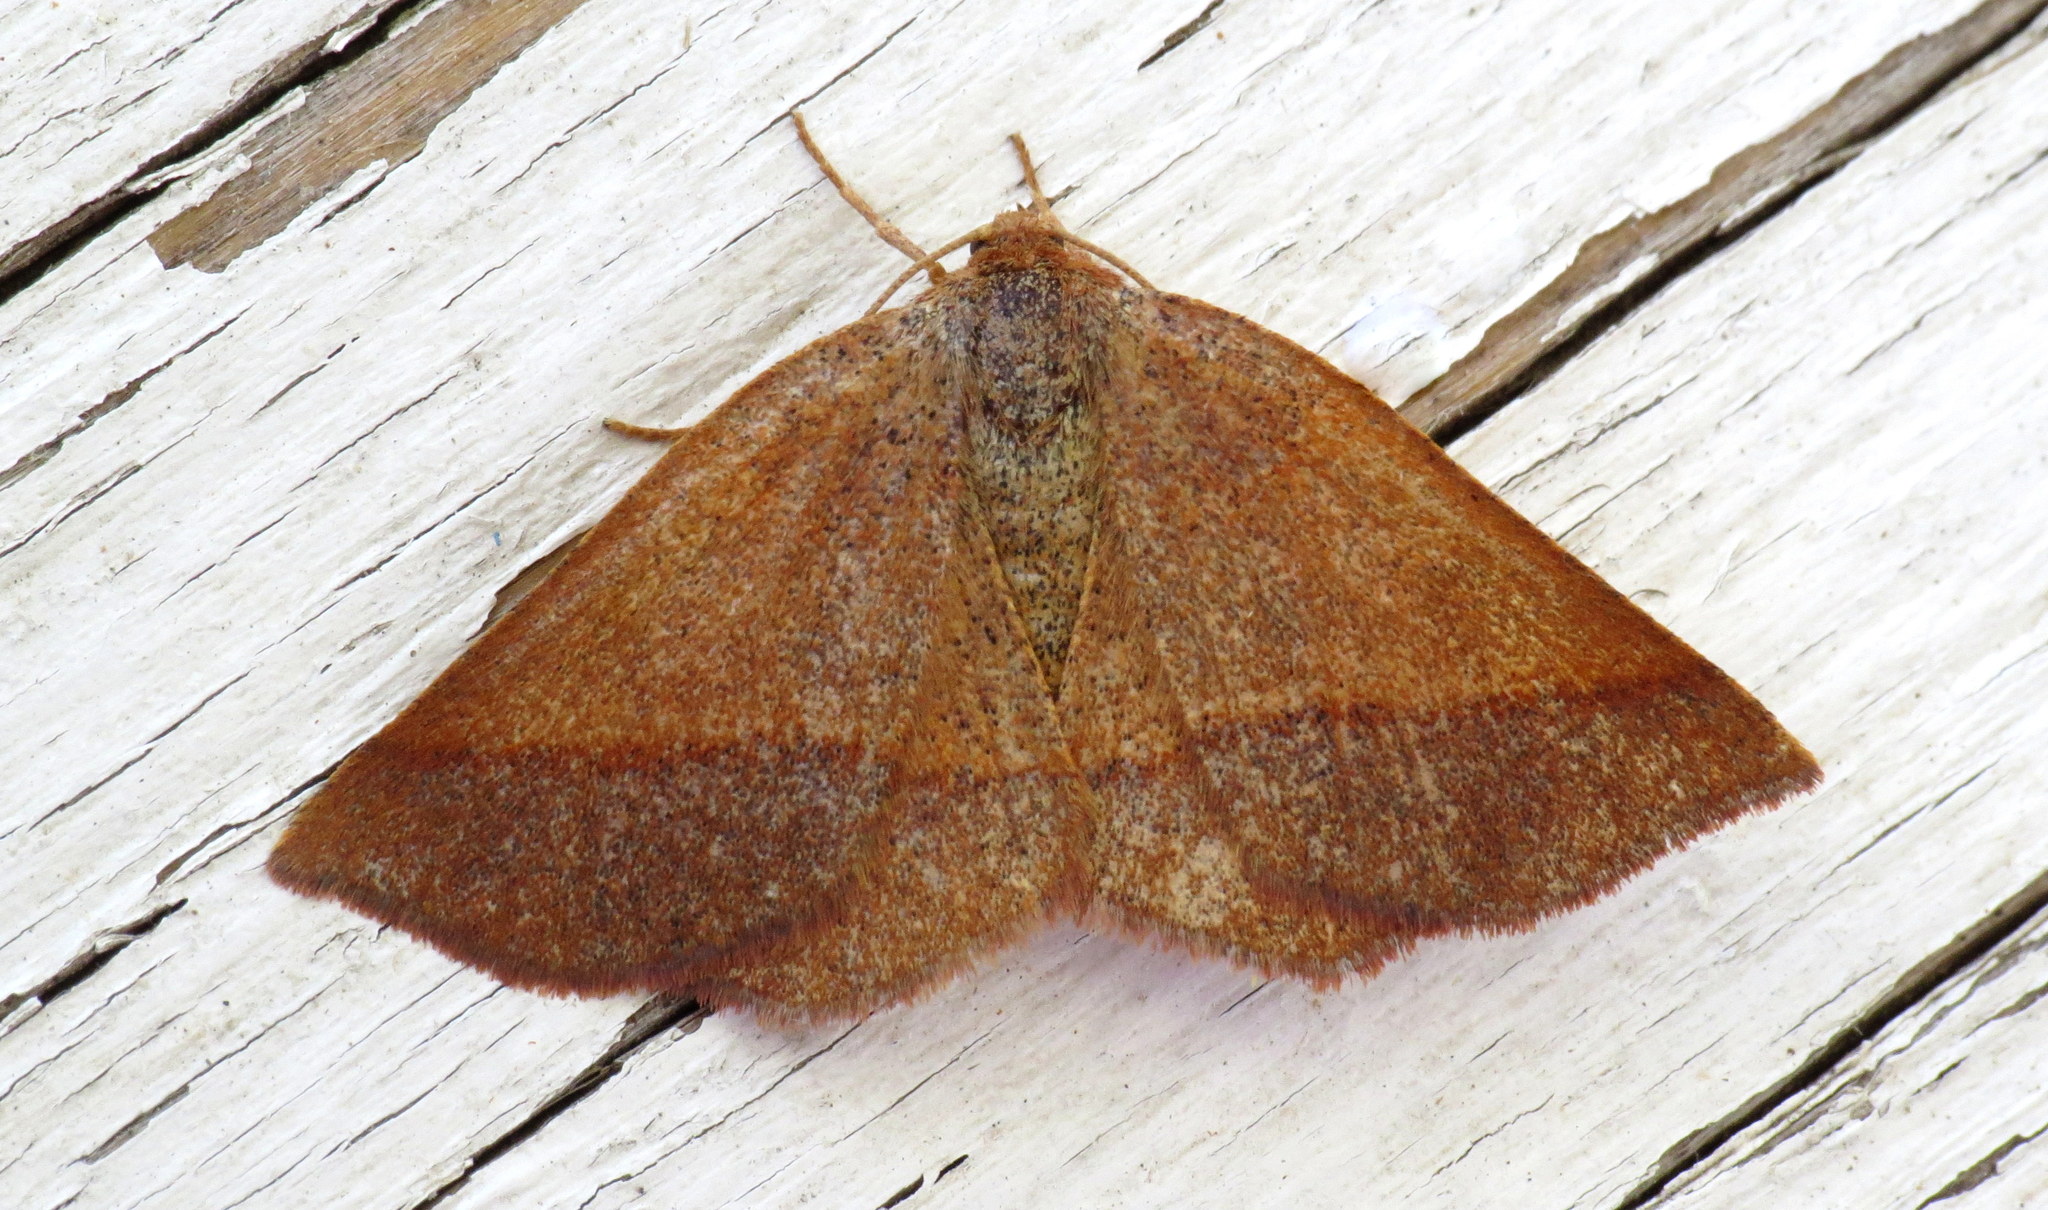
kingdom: Animalia
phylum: Arthropoda
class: Insecta
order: Lepidoptera
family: Geometridae
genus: Metarranthis
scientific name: Metarranthis obfirmaria
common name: Yellow-washed metarranthis
